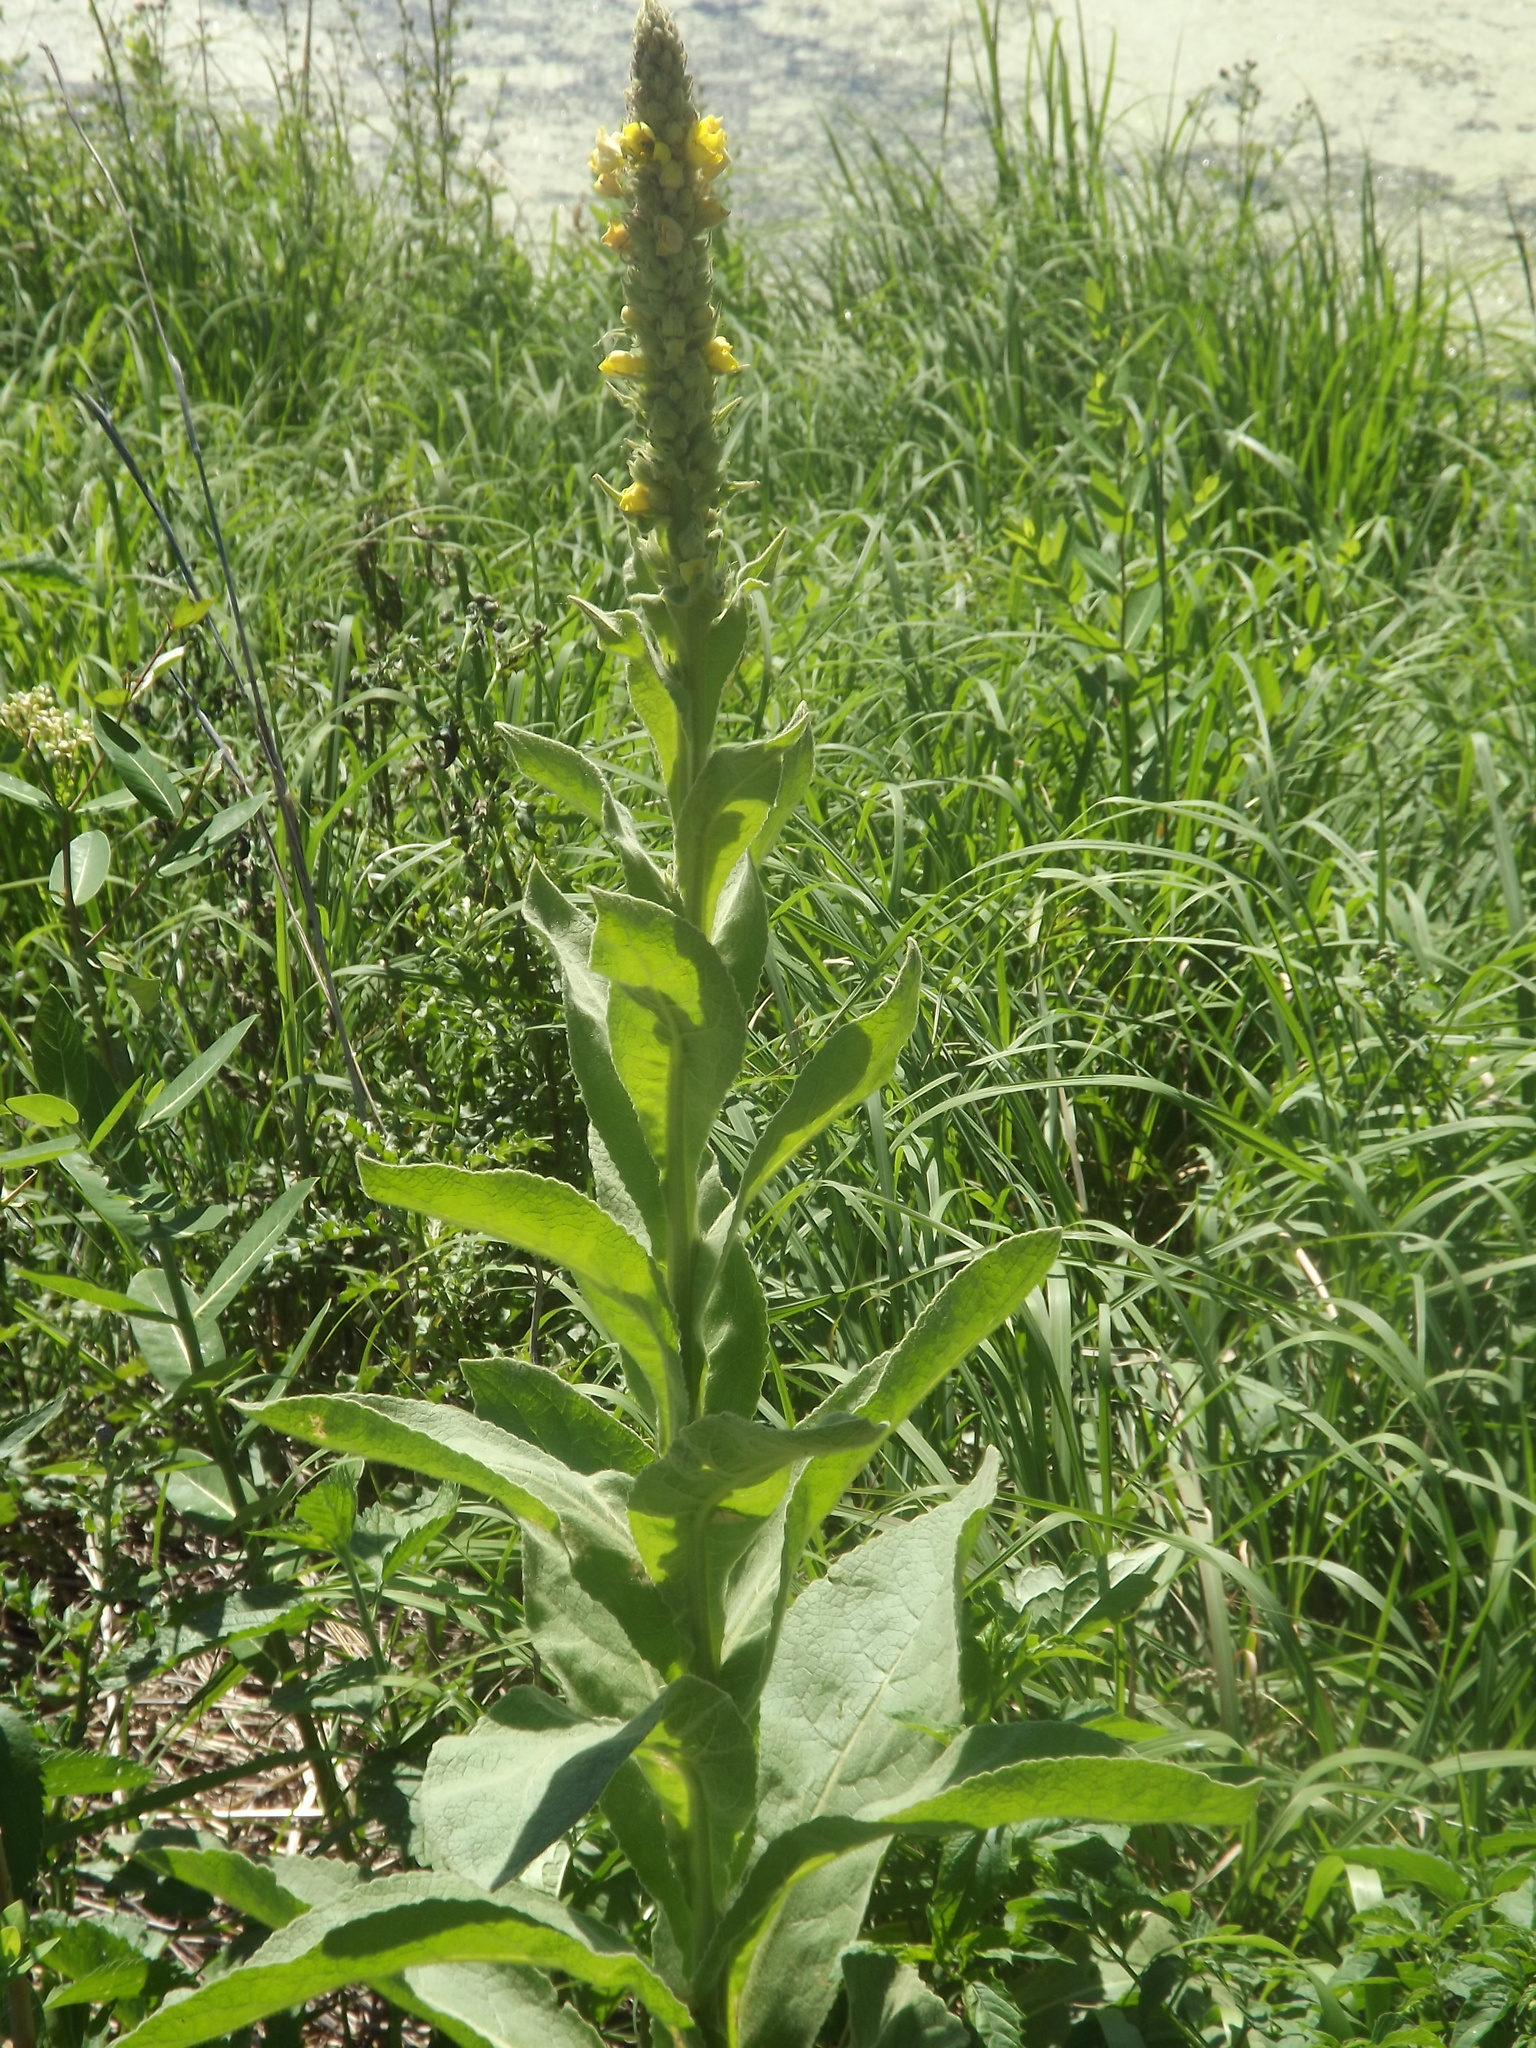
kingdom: Plantae
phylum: Tracheophyta
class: Magnoliopsida
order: Lamiales
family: Scrophulariaceae
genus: Verbascum
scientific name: Verbascum thapsus
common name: Common mullein
